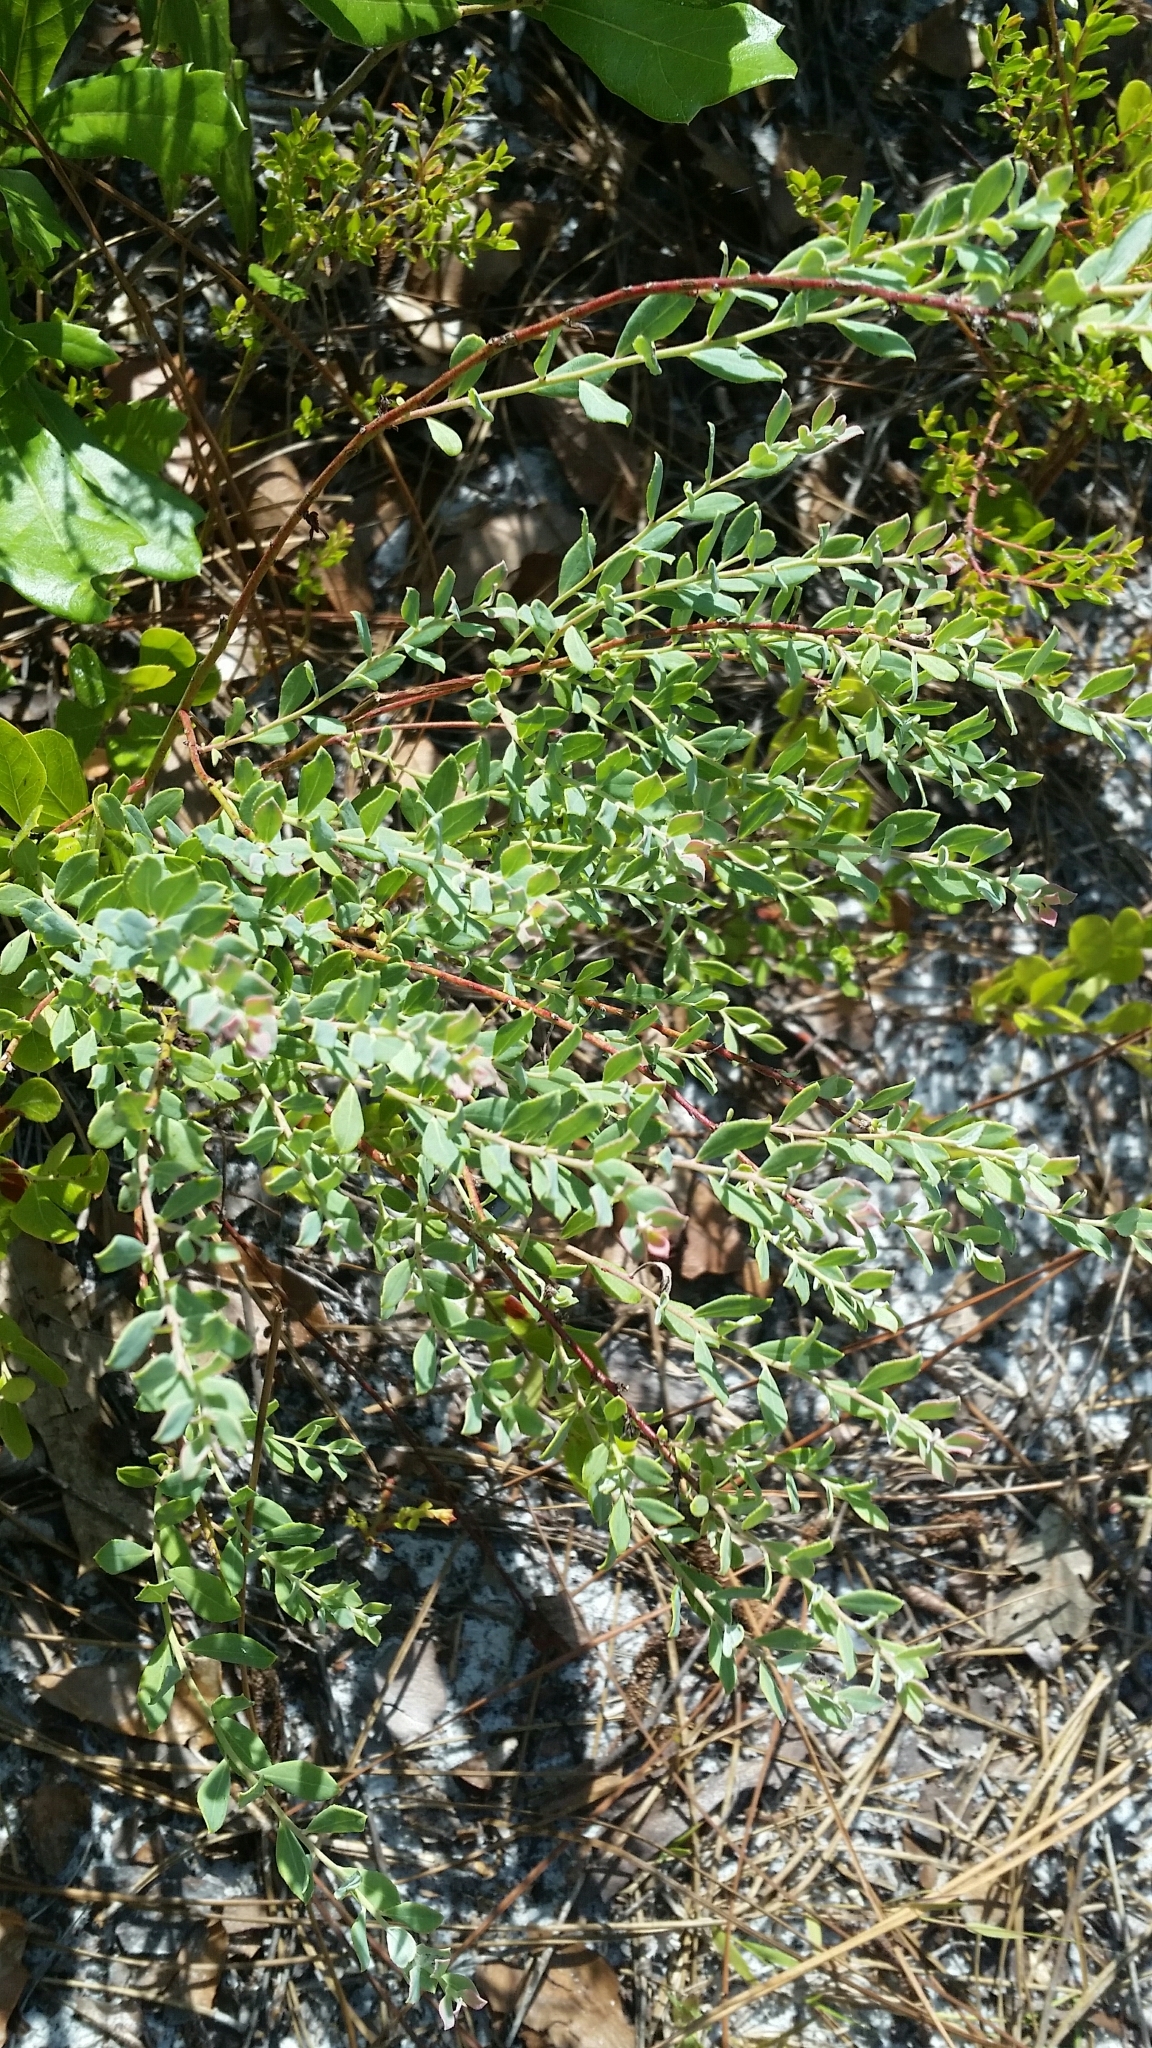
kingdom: Plantae
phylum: Tracheophyta
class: Magnoliopsida
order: Ericales
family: Ericaceae
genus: Vaccinium
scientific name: Vaccinium darrowii
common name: Darrow's blueberry
